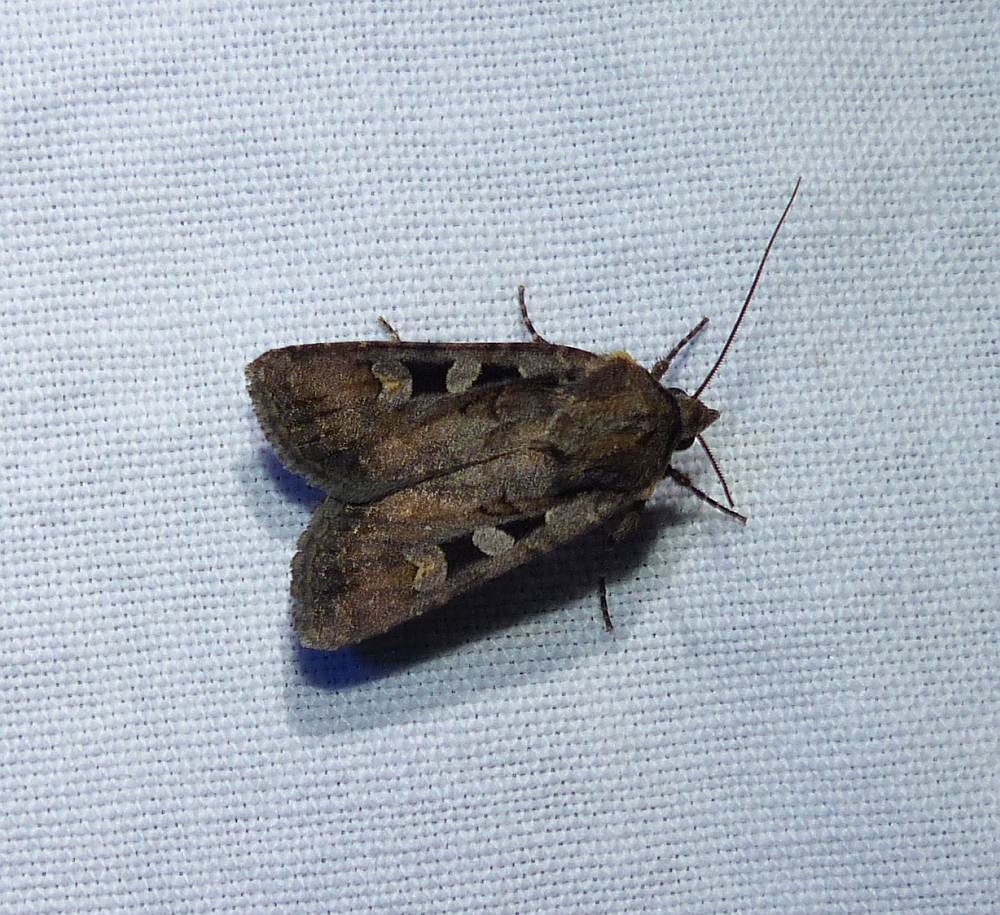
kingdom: Animalia
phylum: Arthropoda
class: Insecta
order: Lepidoptera
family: Noctuidae
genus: Euxoa
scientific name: Euxoa tessellata
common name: Striped cutworm
